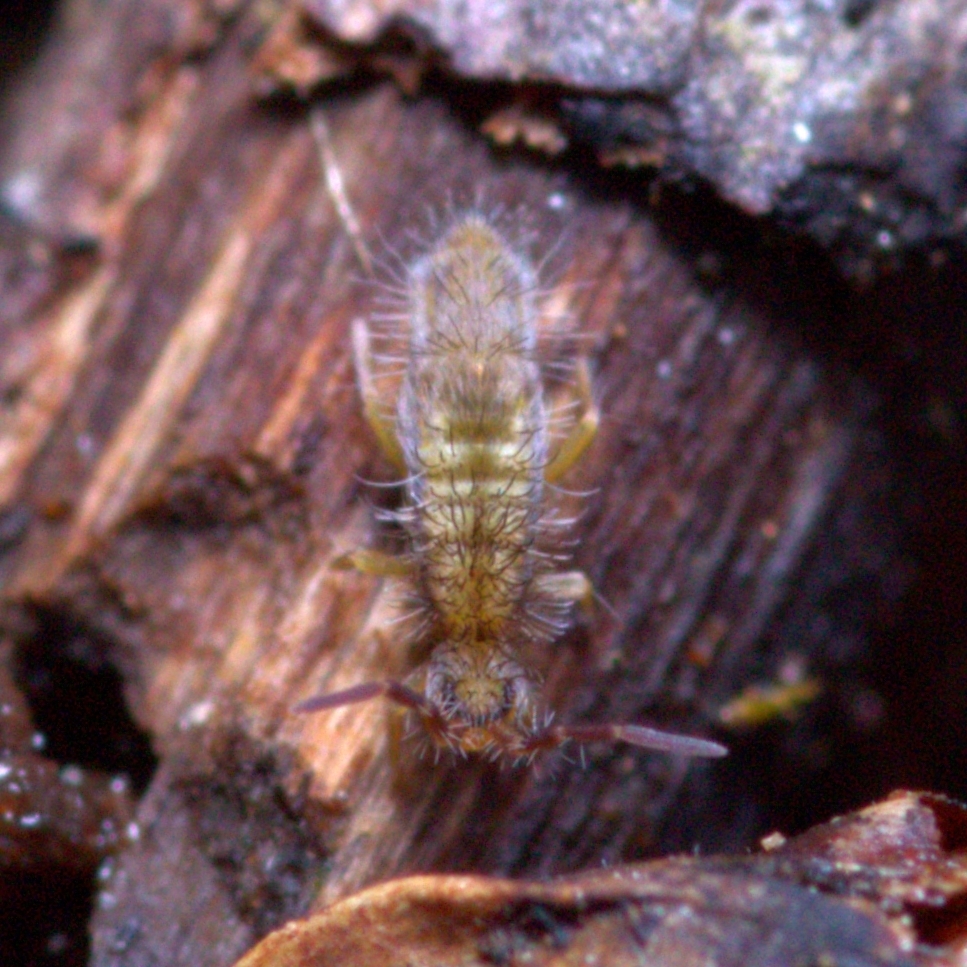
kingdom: Animalia
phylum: Arthropoda
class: Collembola
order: Entomobryomorpha
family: Entomobryidae
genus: Homidia
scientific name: Homidia socia
